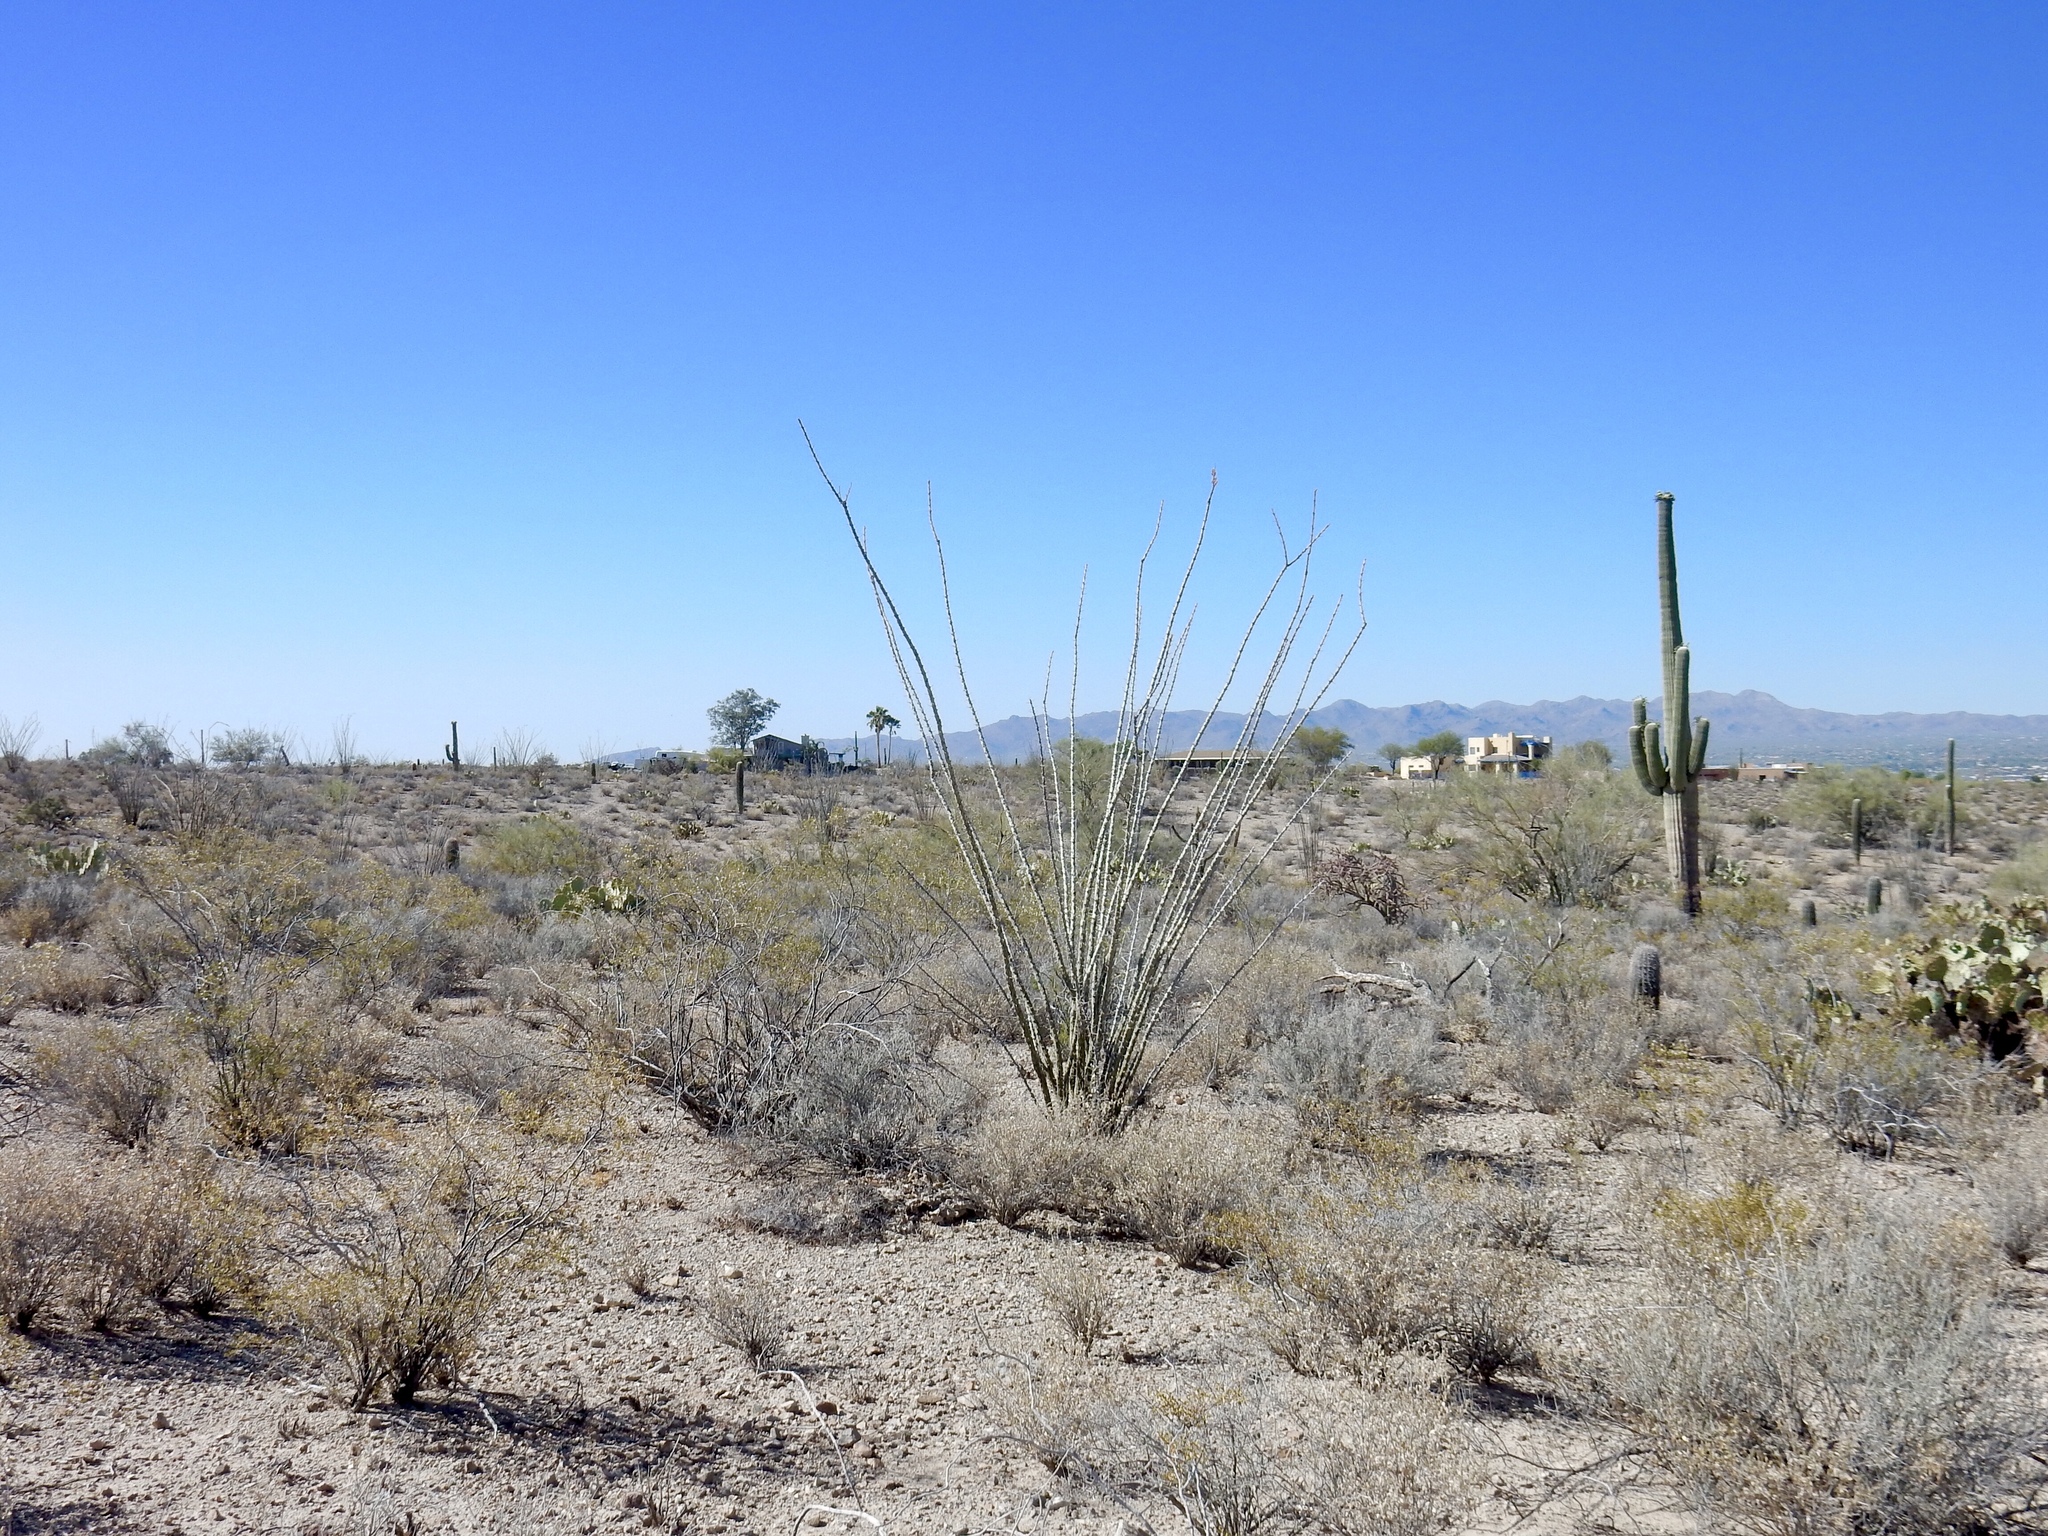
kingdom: Plantae
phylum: Tracheophyta
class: Magnoliopsida
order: Ericales
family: Fouquieriaceae
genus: Fouquieria
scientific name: Fouquieria splendens
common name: Vine-cactus
